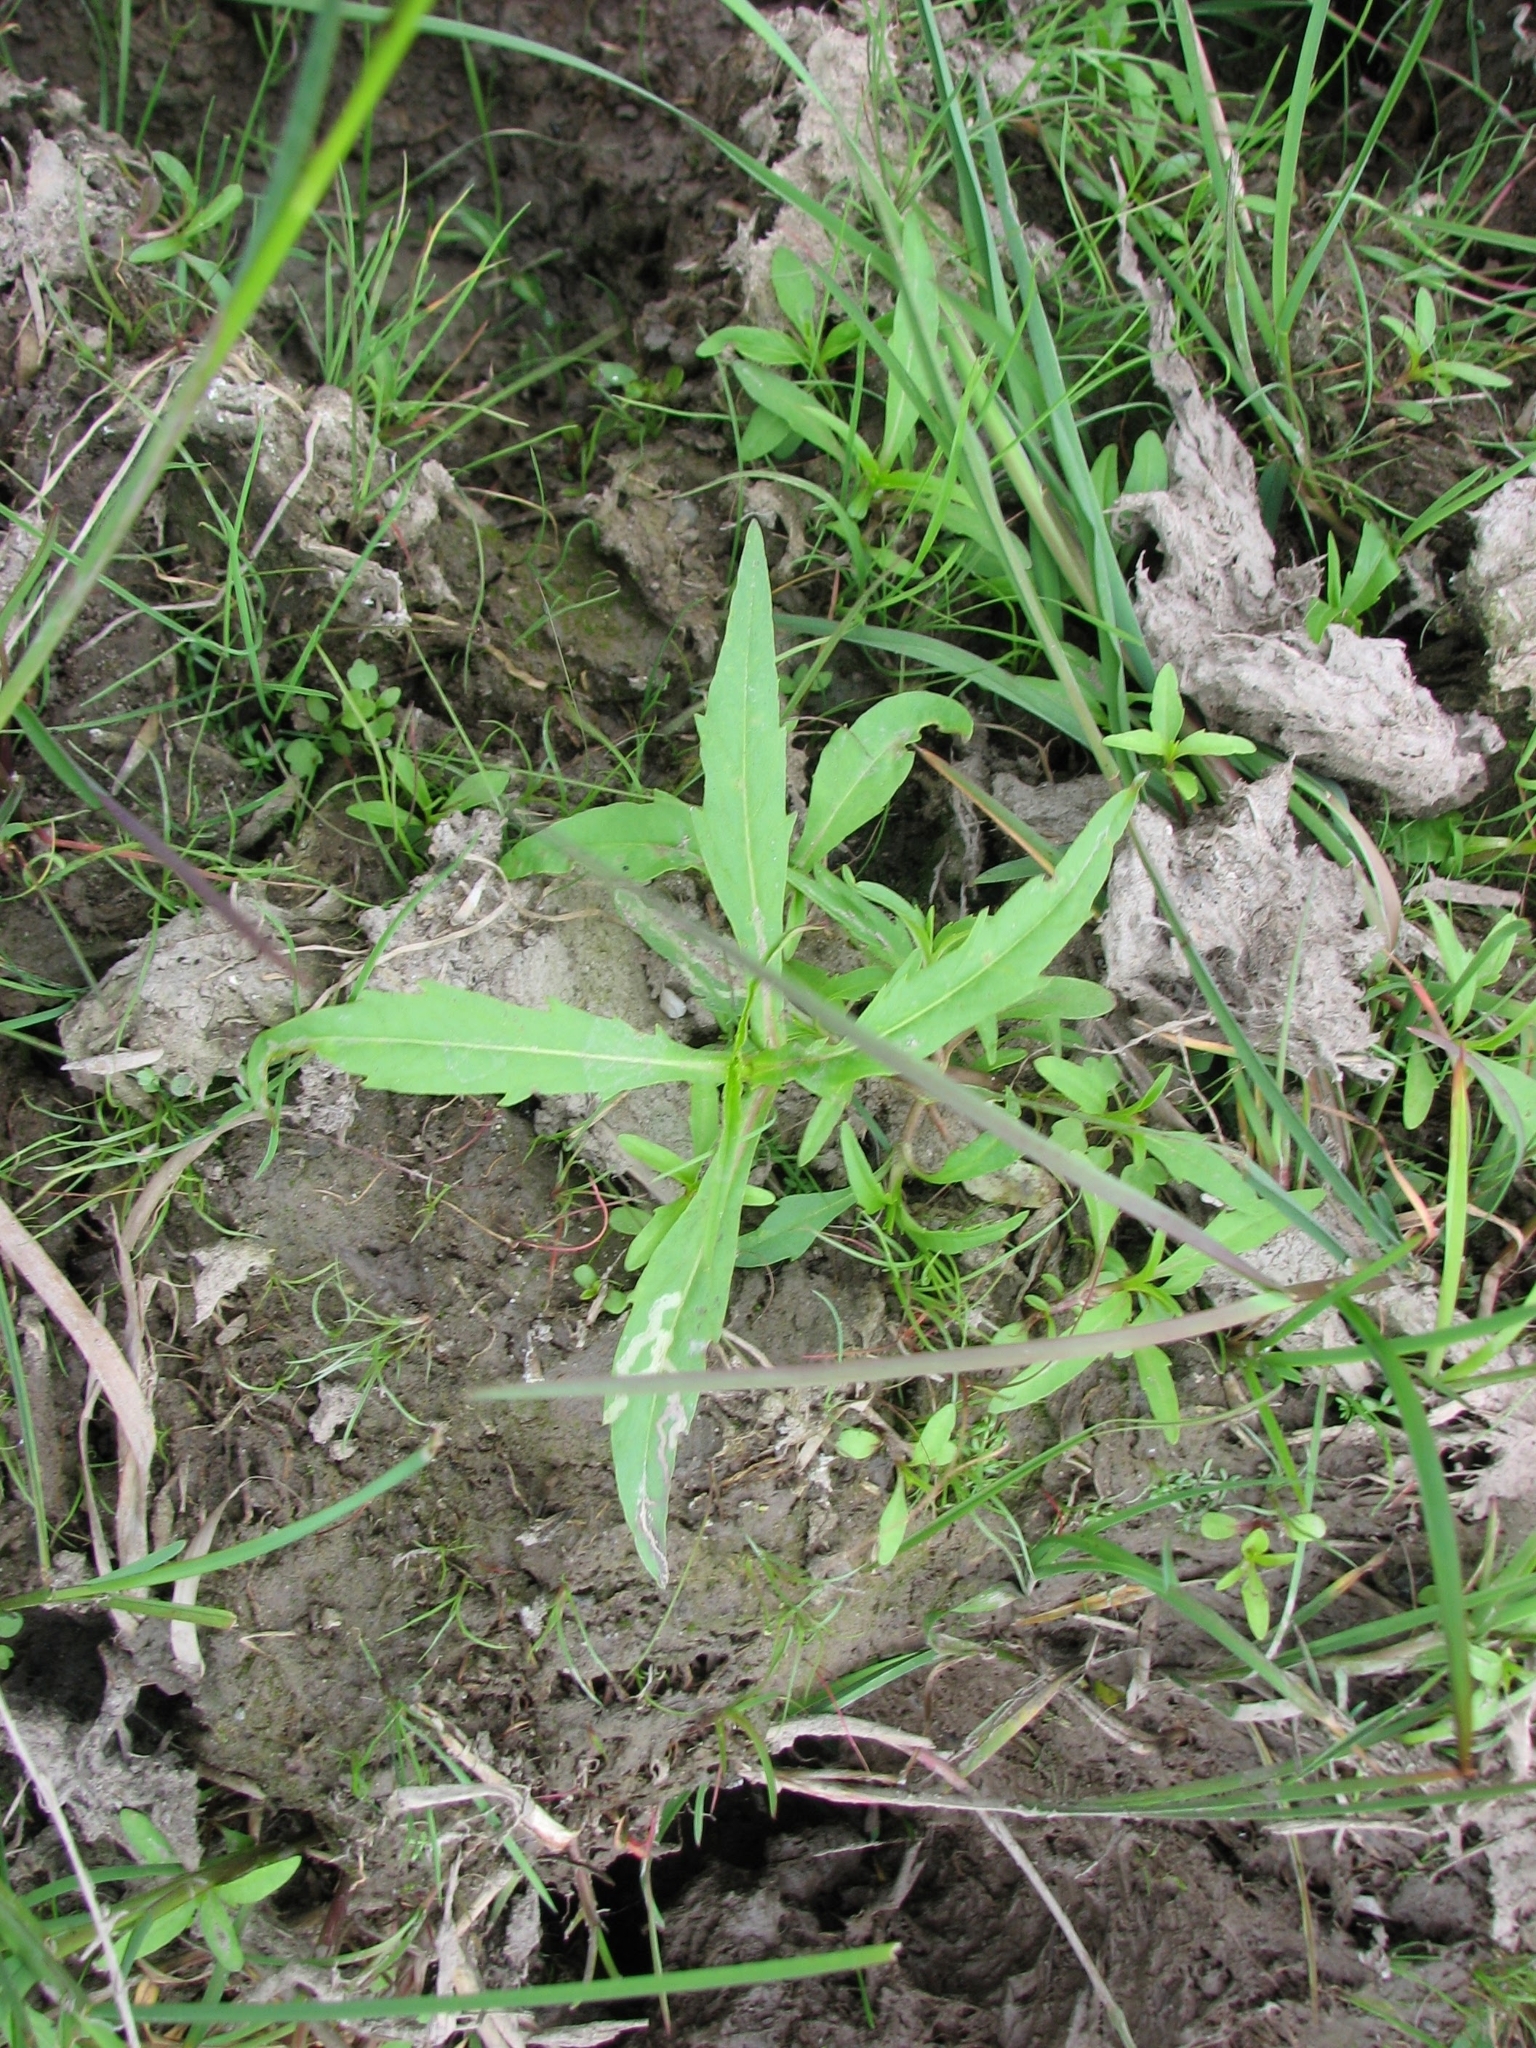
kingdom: Plantae
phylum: Tracheophyta
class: Magnoliopsida
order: Asterales
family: Asteraceae
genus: Bidens
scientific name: Bidens cernua
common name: Nodding bur-marigold
